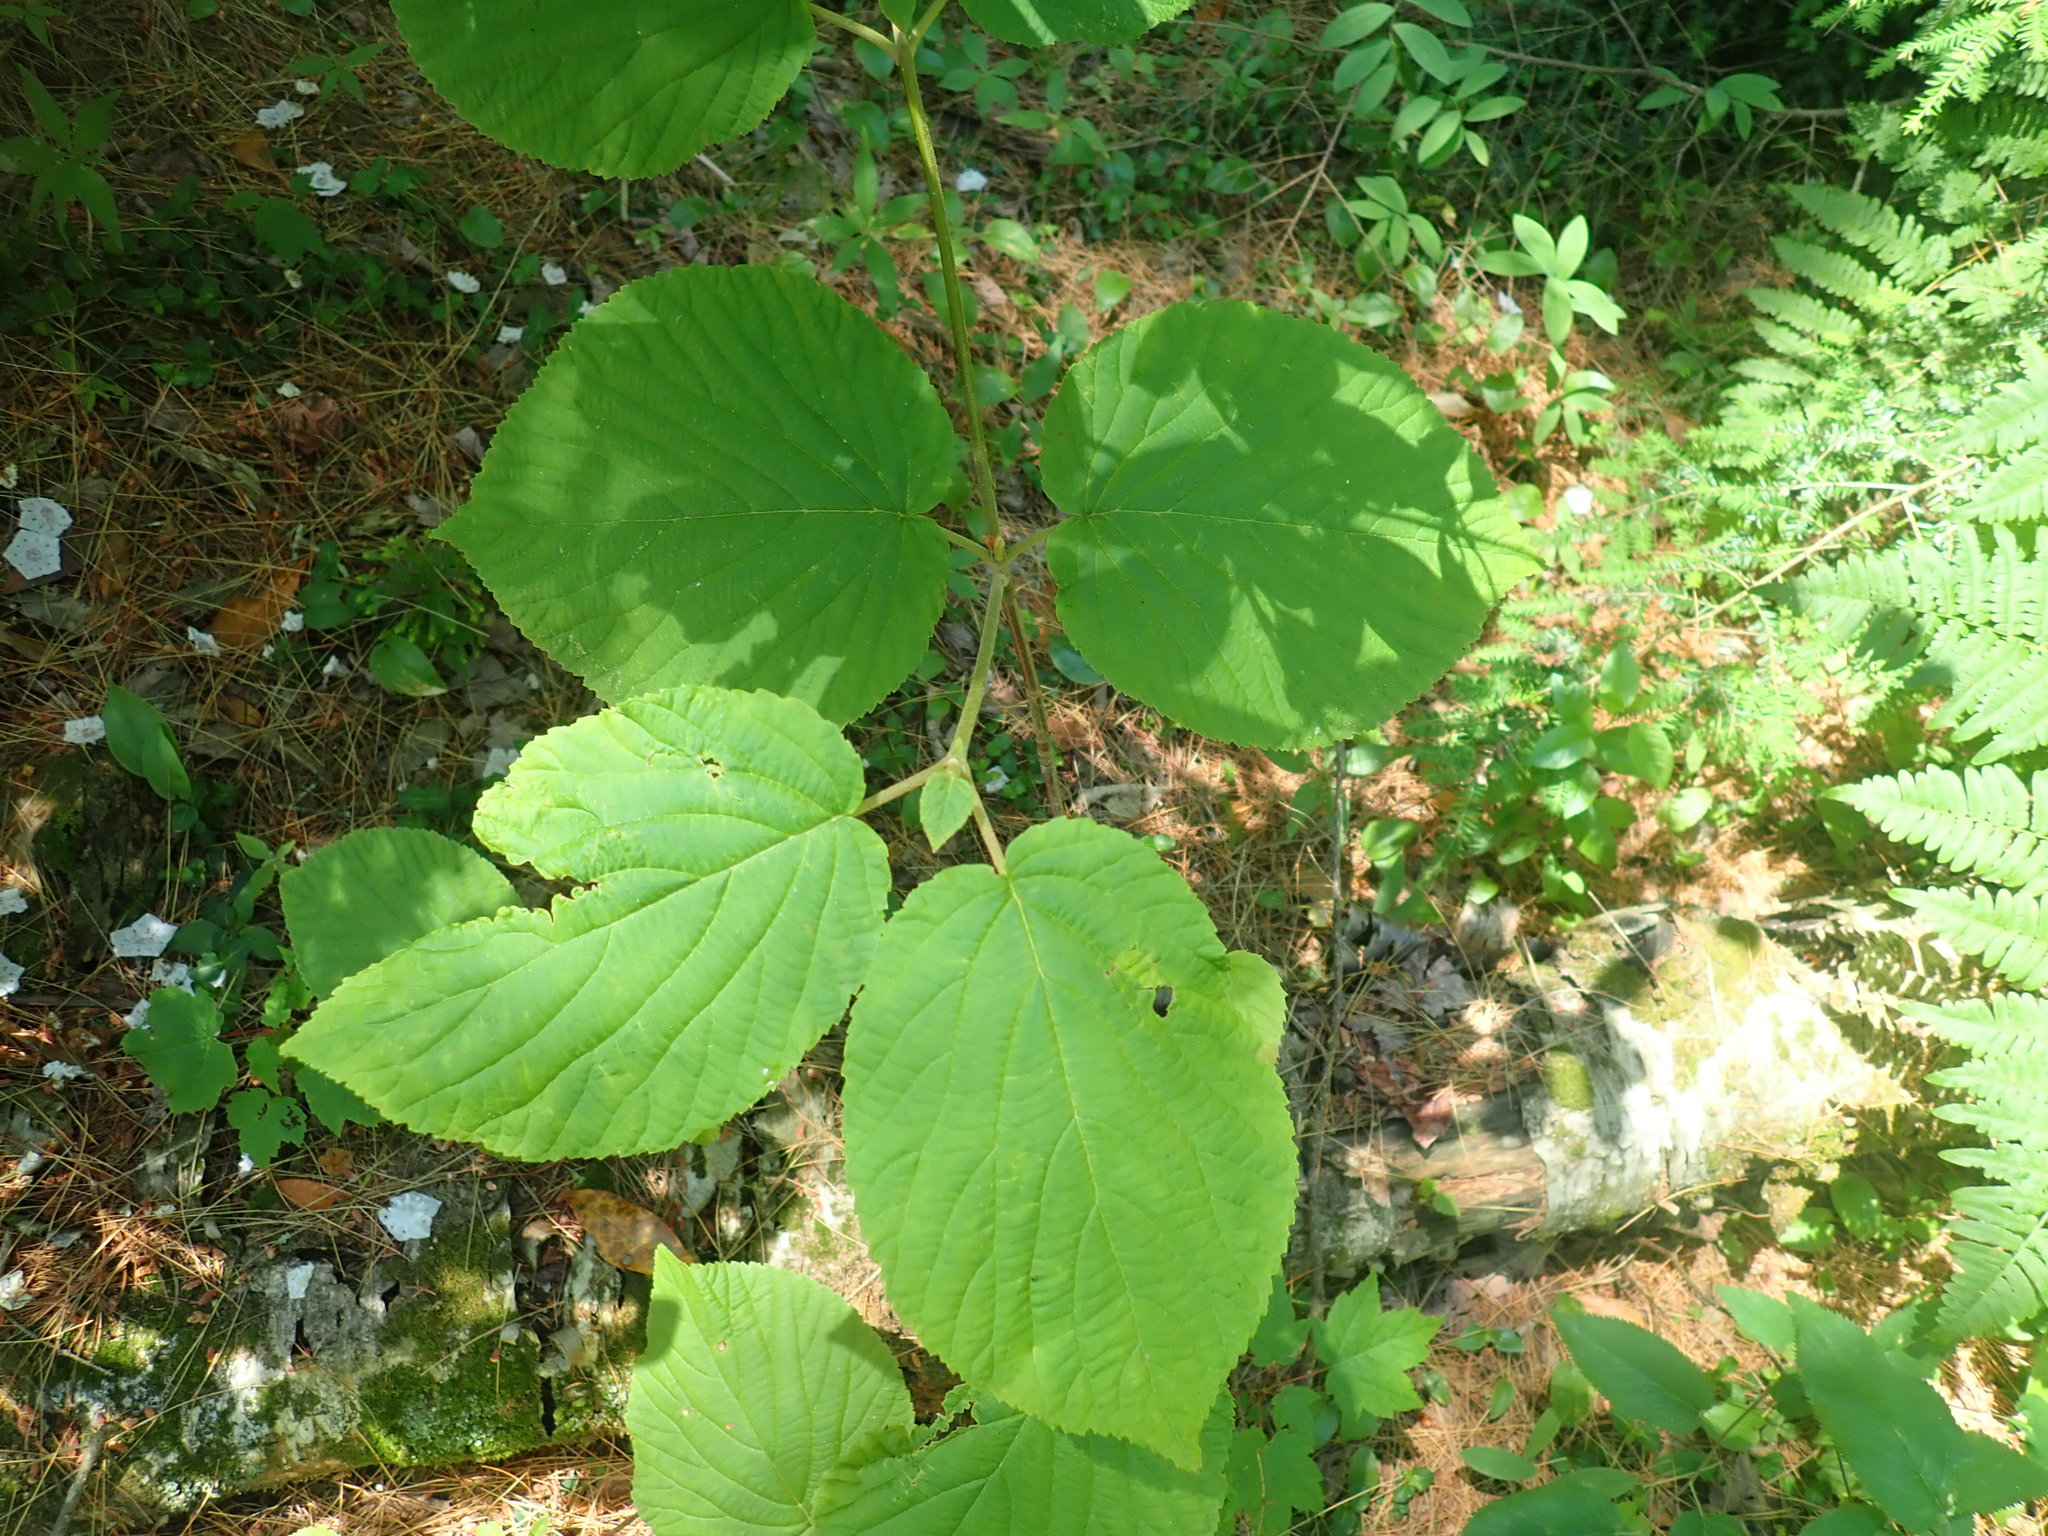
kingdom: Plantae
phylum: Tracheophyta
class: Magnoliopsida
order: Dipsacales
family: Viburnaceae
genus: Viburnum
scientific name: Viburnum lantanoides
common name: Hobblebush
